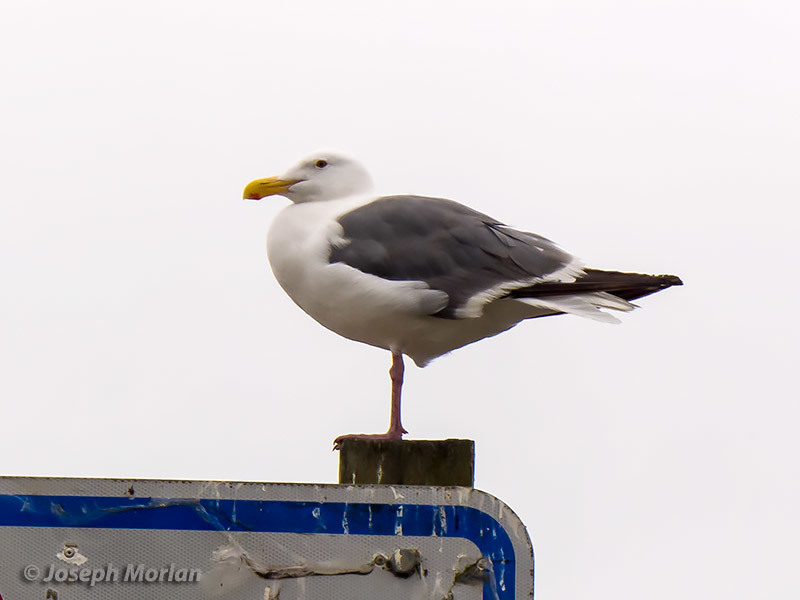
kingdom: Animalia
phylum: Chordata
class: Aves
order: Charadriiformes
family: Laridae
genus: Larus
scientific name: Larus occidentalis
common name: Western gull
